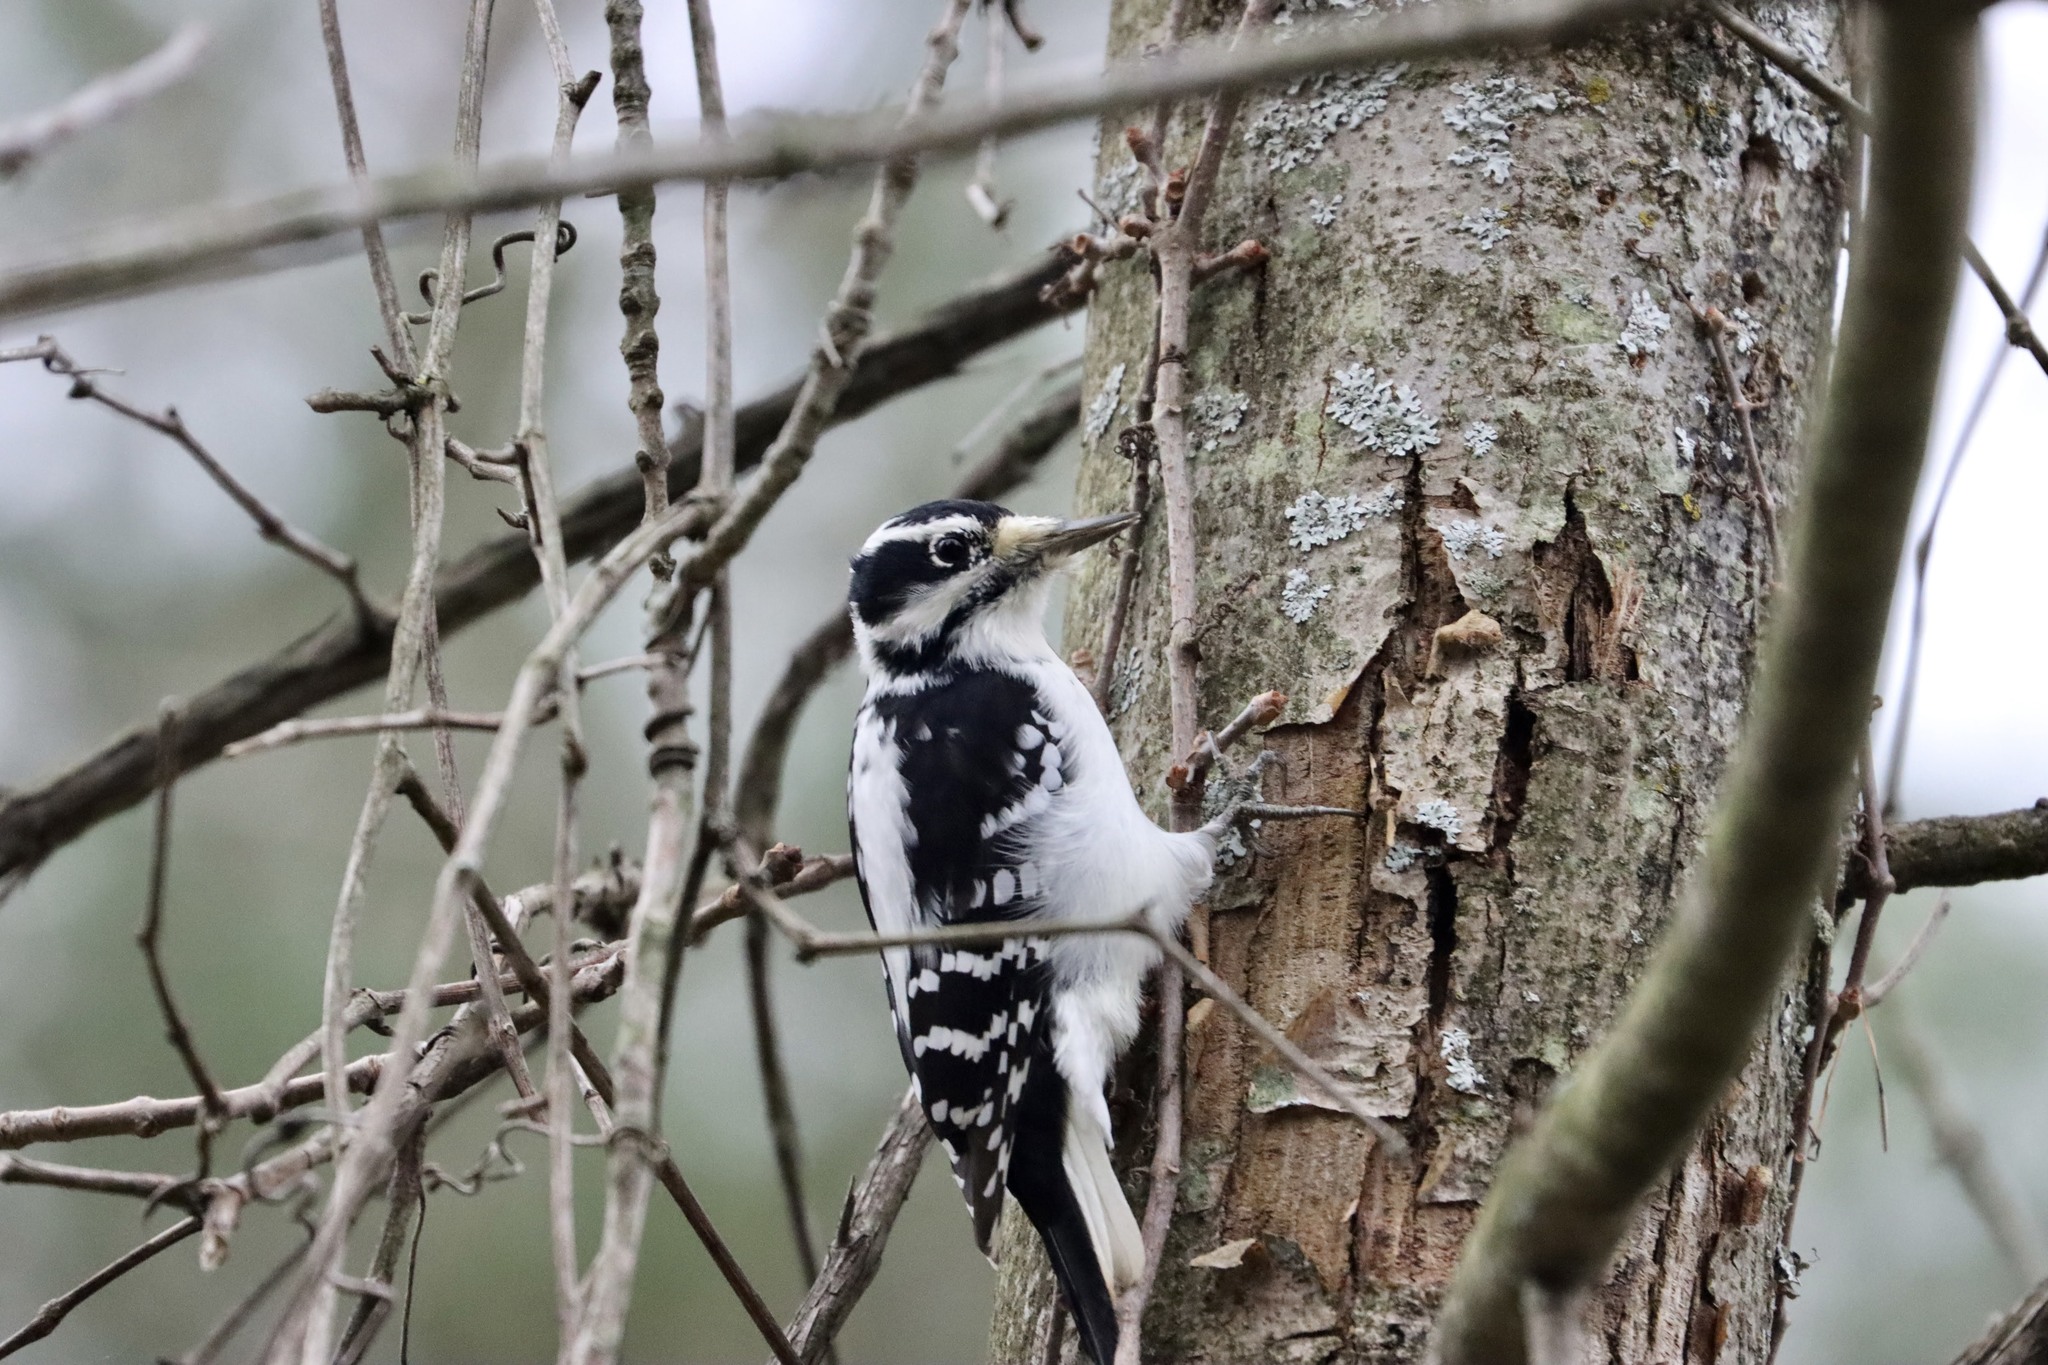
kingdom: Animalia
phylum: Chordata
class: Aves
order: Piciformes
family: Picidae
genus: Leuconotopicus
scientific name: Leuconotopicus villosus
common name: Hairy woodpecker
